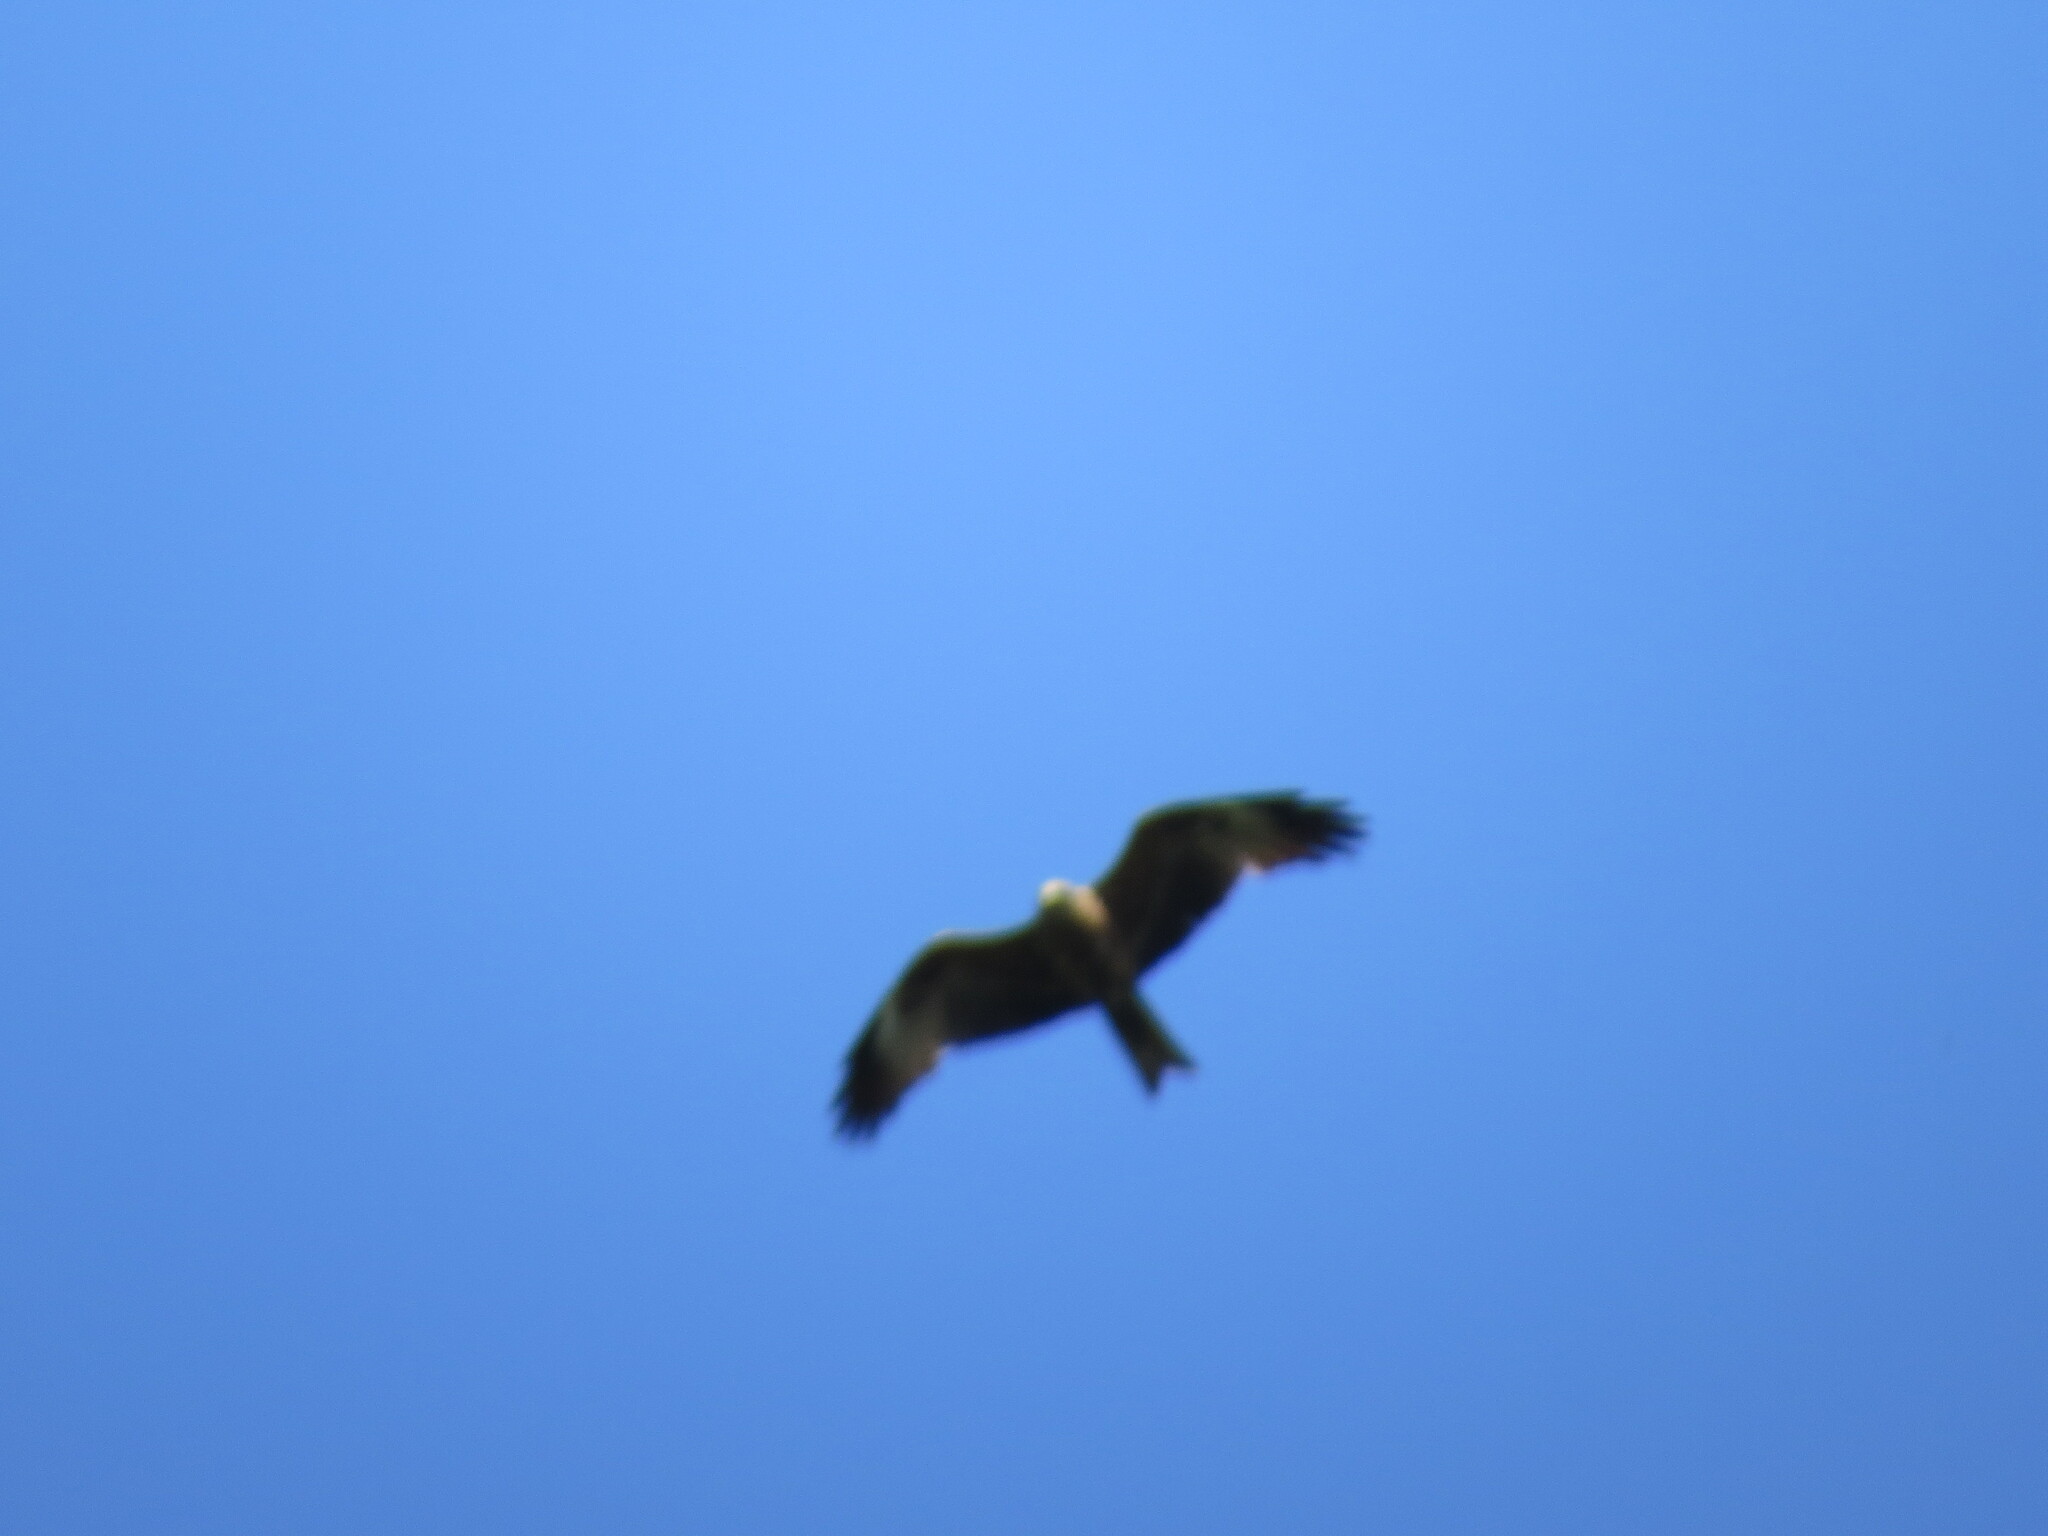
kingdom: Animalia
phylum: Chordata
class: Aves
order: Accipitriformes
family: Accipitridae
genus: Milvus
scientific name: Milvus migrans
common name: Black kite
